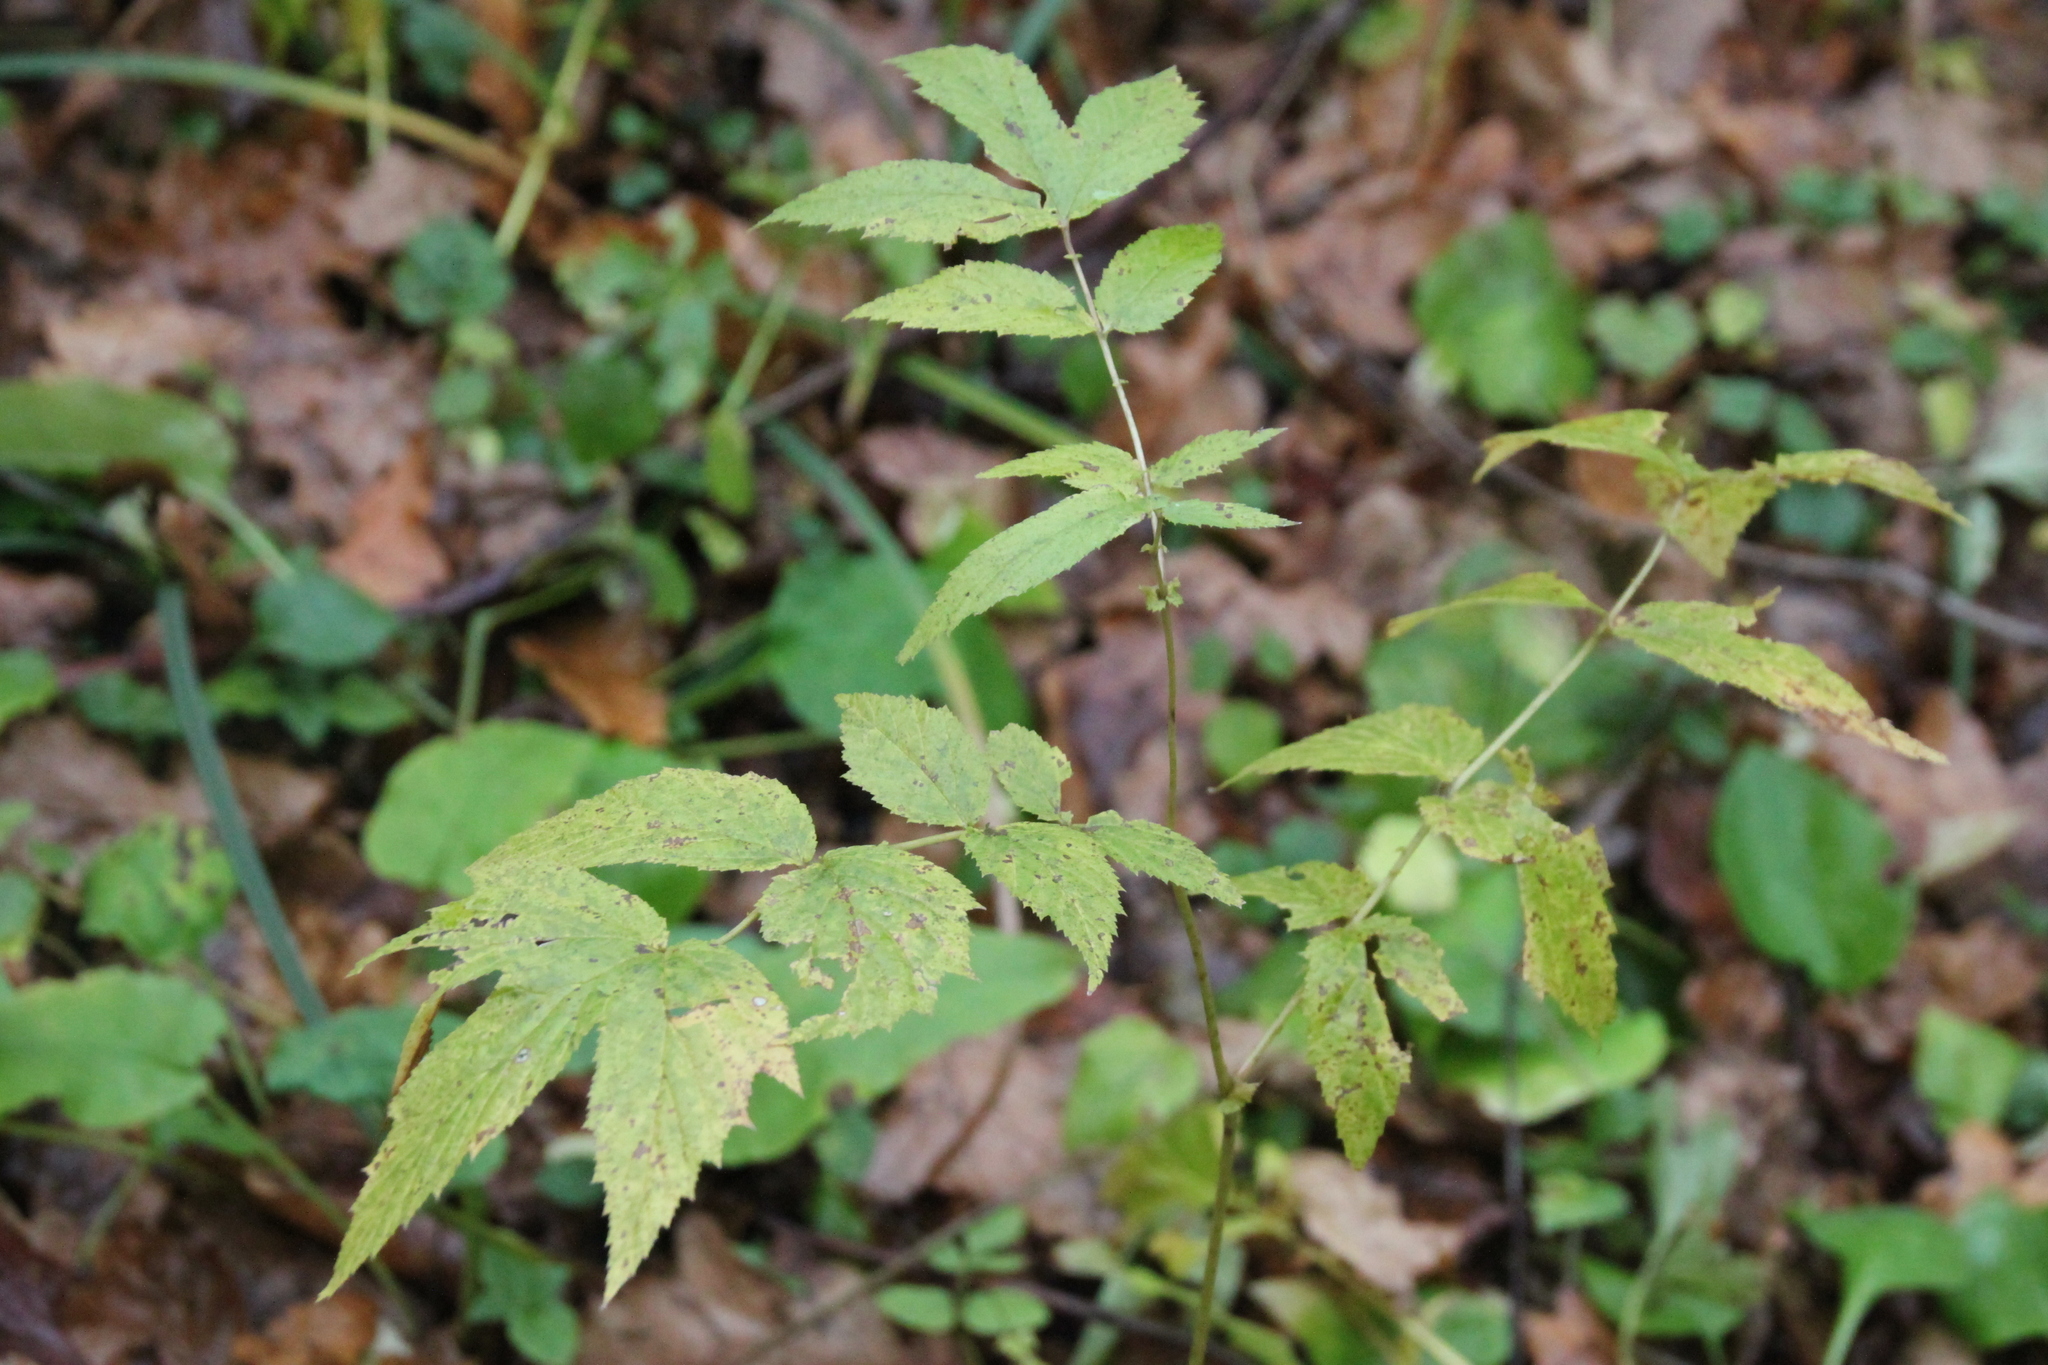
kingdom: Plantae
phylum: Tracheophyta
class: Magnoliopsida
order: Rosales
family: Rosaceae
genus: Filipendula
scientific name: Filipendula ulmaria
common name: Meadowsweet
